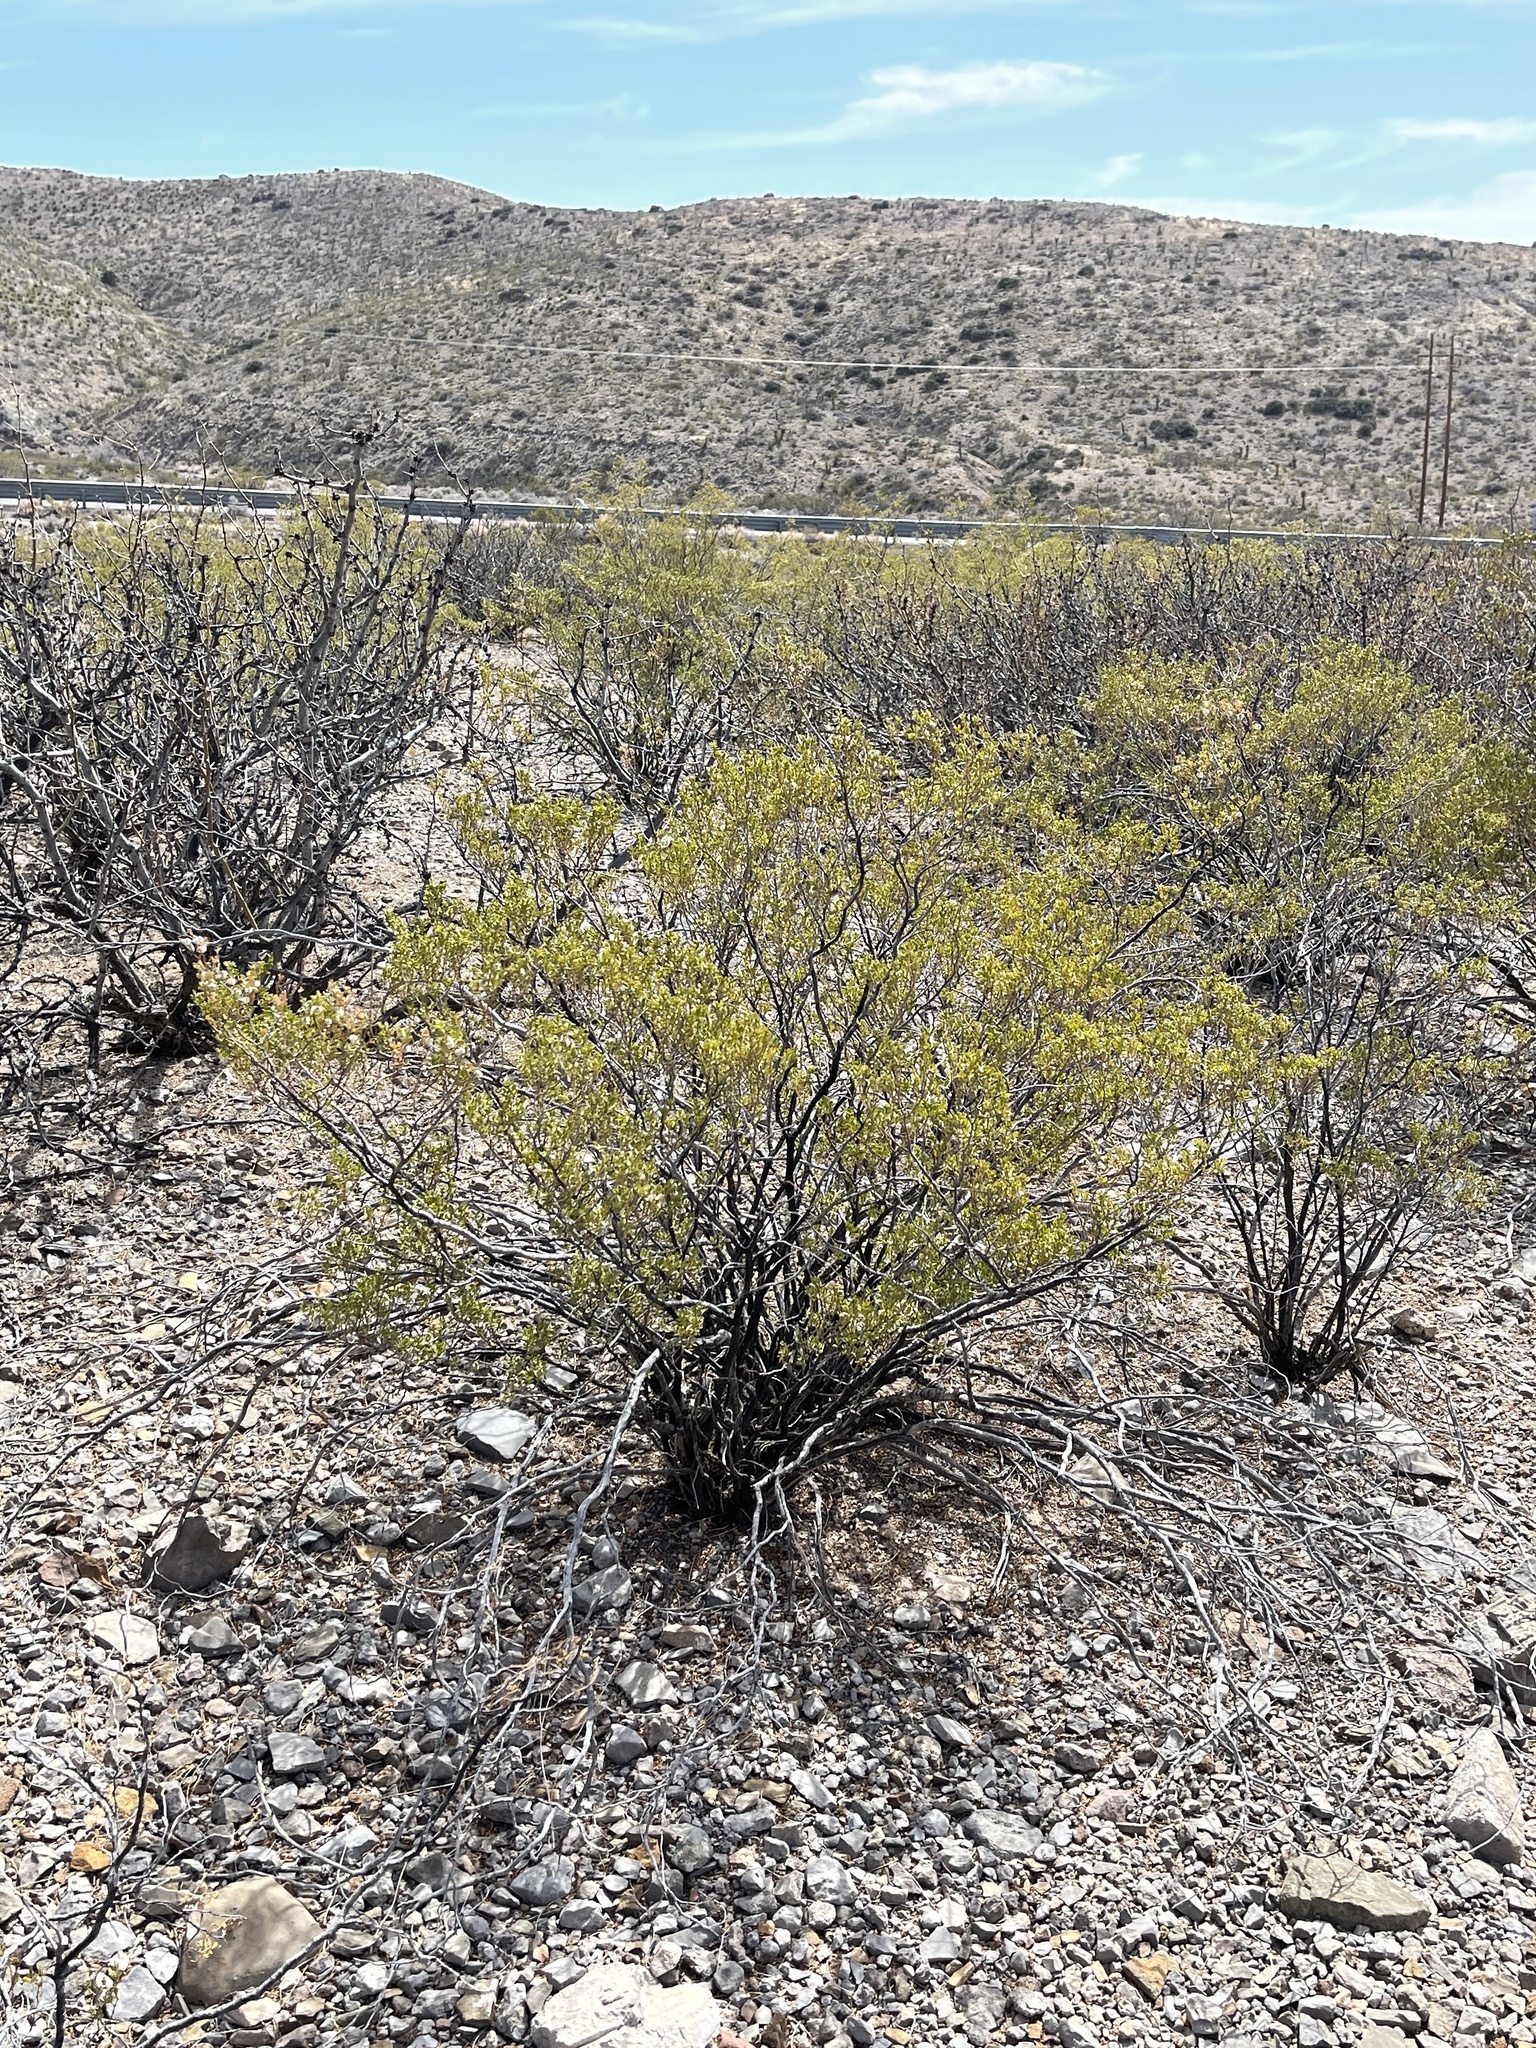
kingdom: Plantae
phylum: Tracheophyta
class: Magnoliopsida
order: Zygophyllales
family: Zygophyllaceae
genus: Larrea
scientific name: Larrea tridentata
